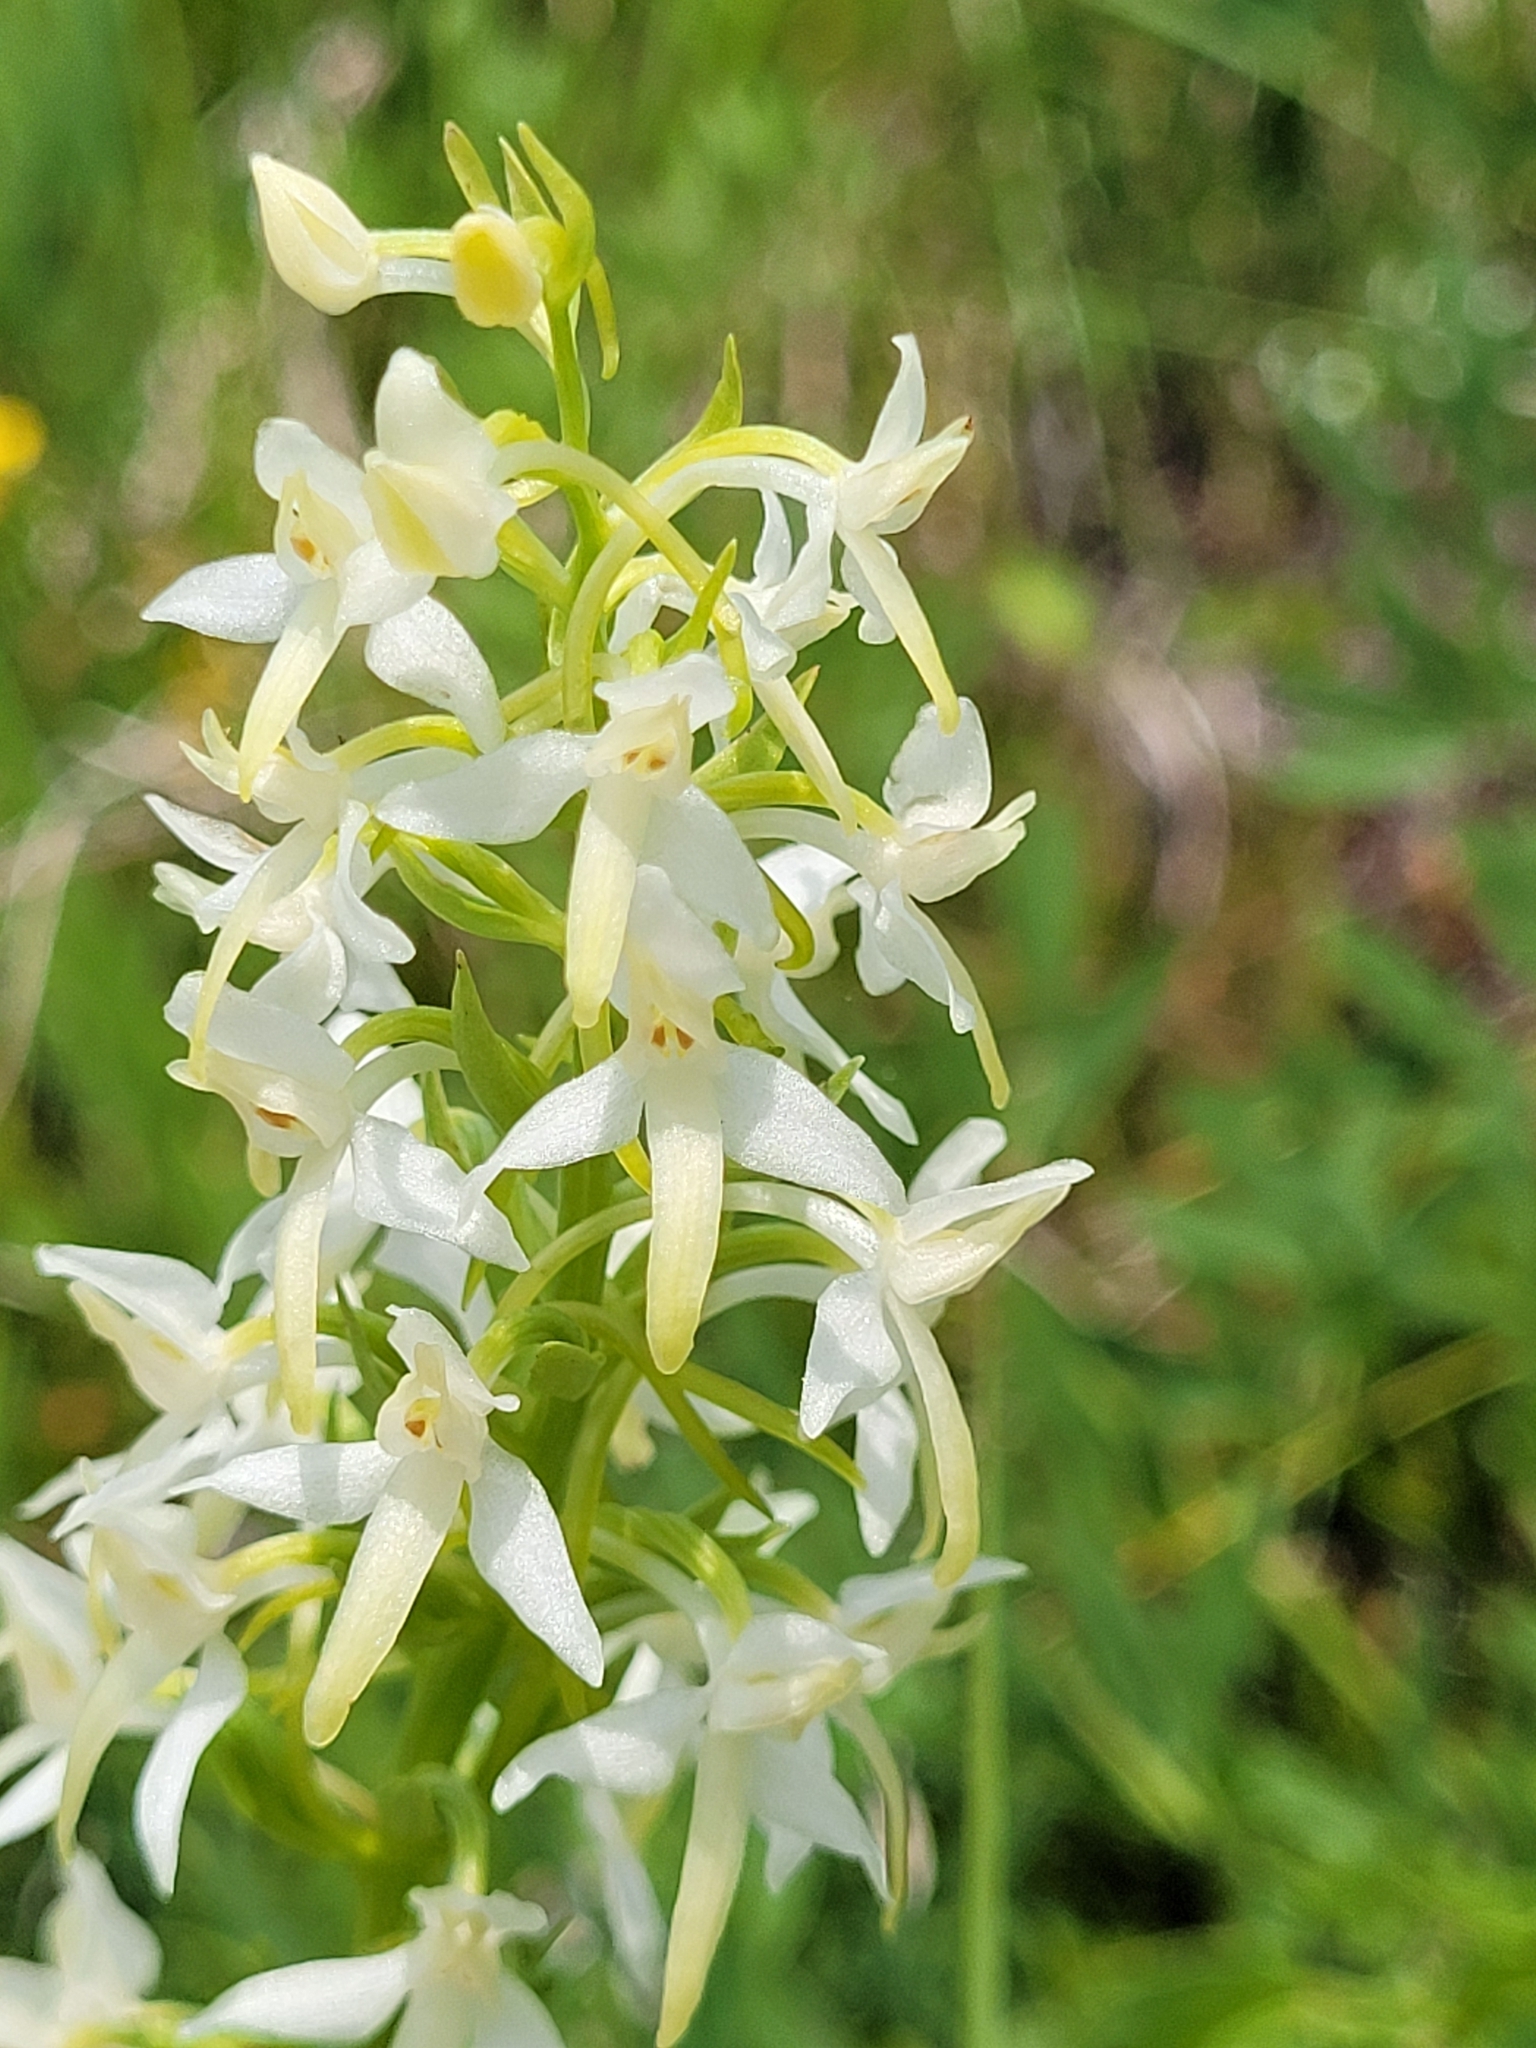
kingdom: Plantae
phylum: Tracheophyta
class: Liliopsida
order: Asparagales
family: Orchidaceae
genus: Platanthera
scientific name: Platanthera bifolia
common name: Lesser butterfly-orchid
